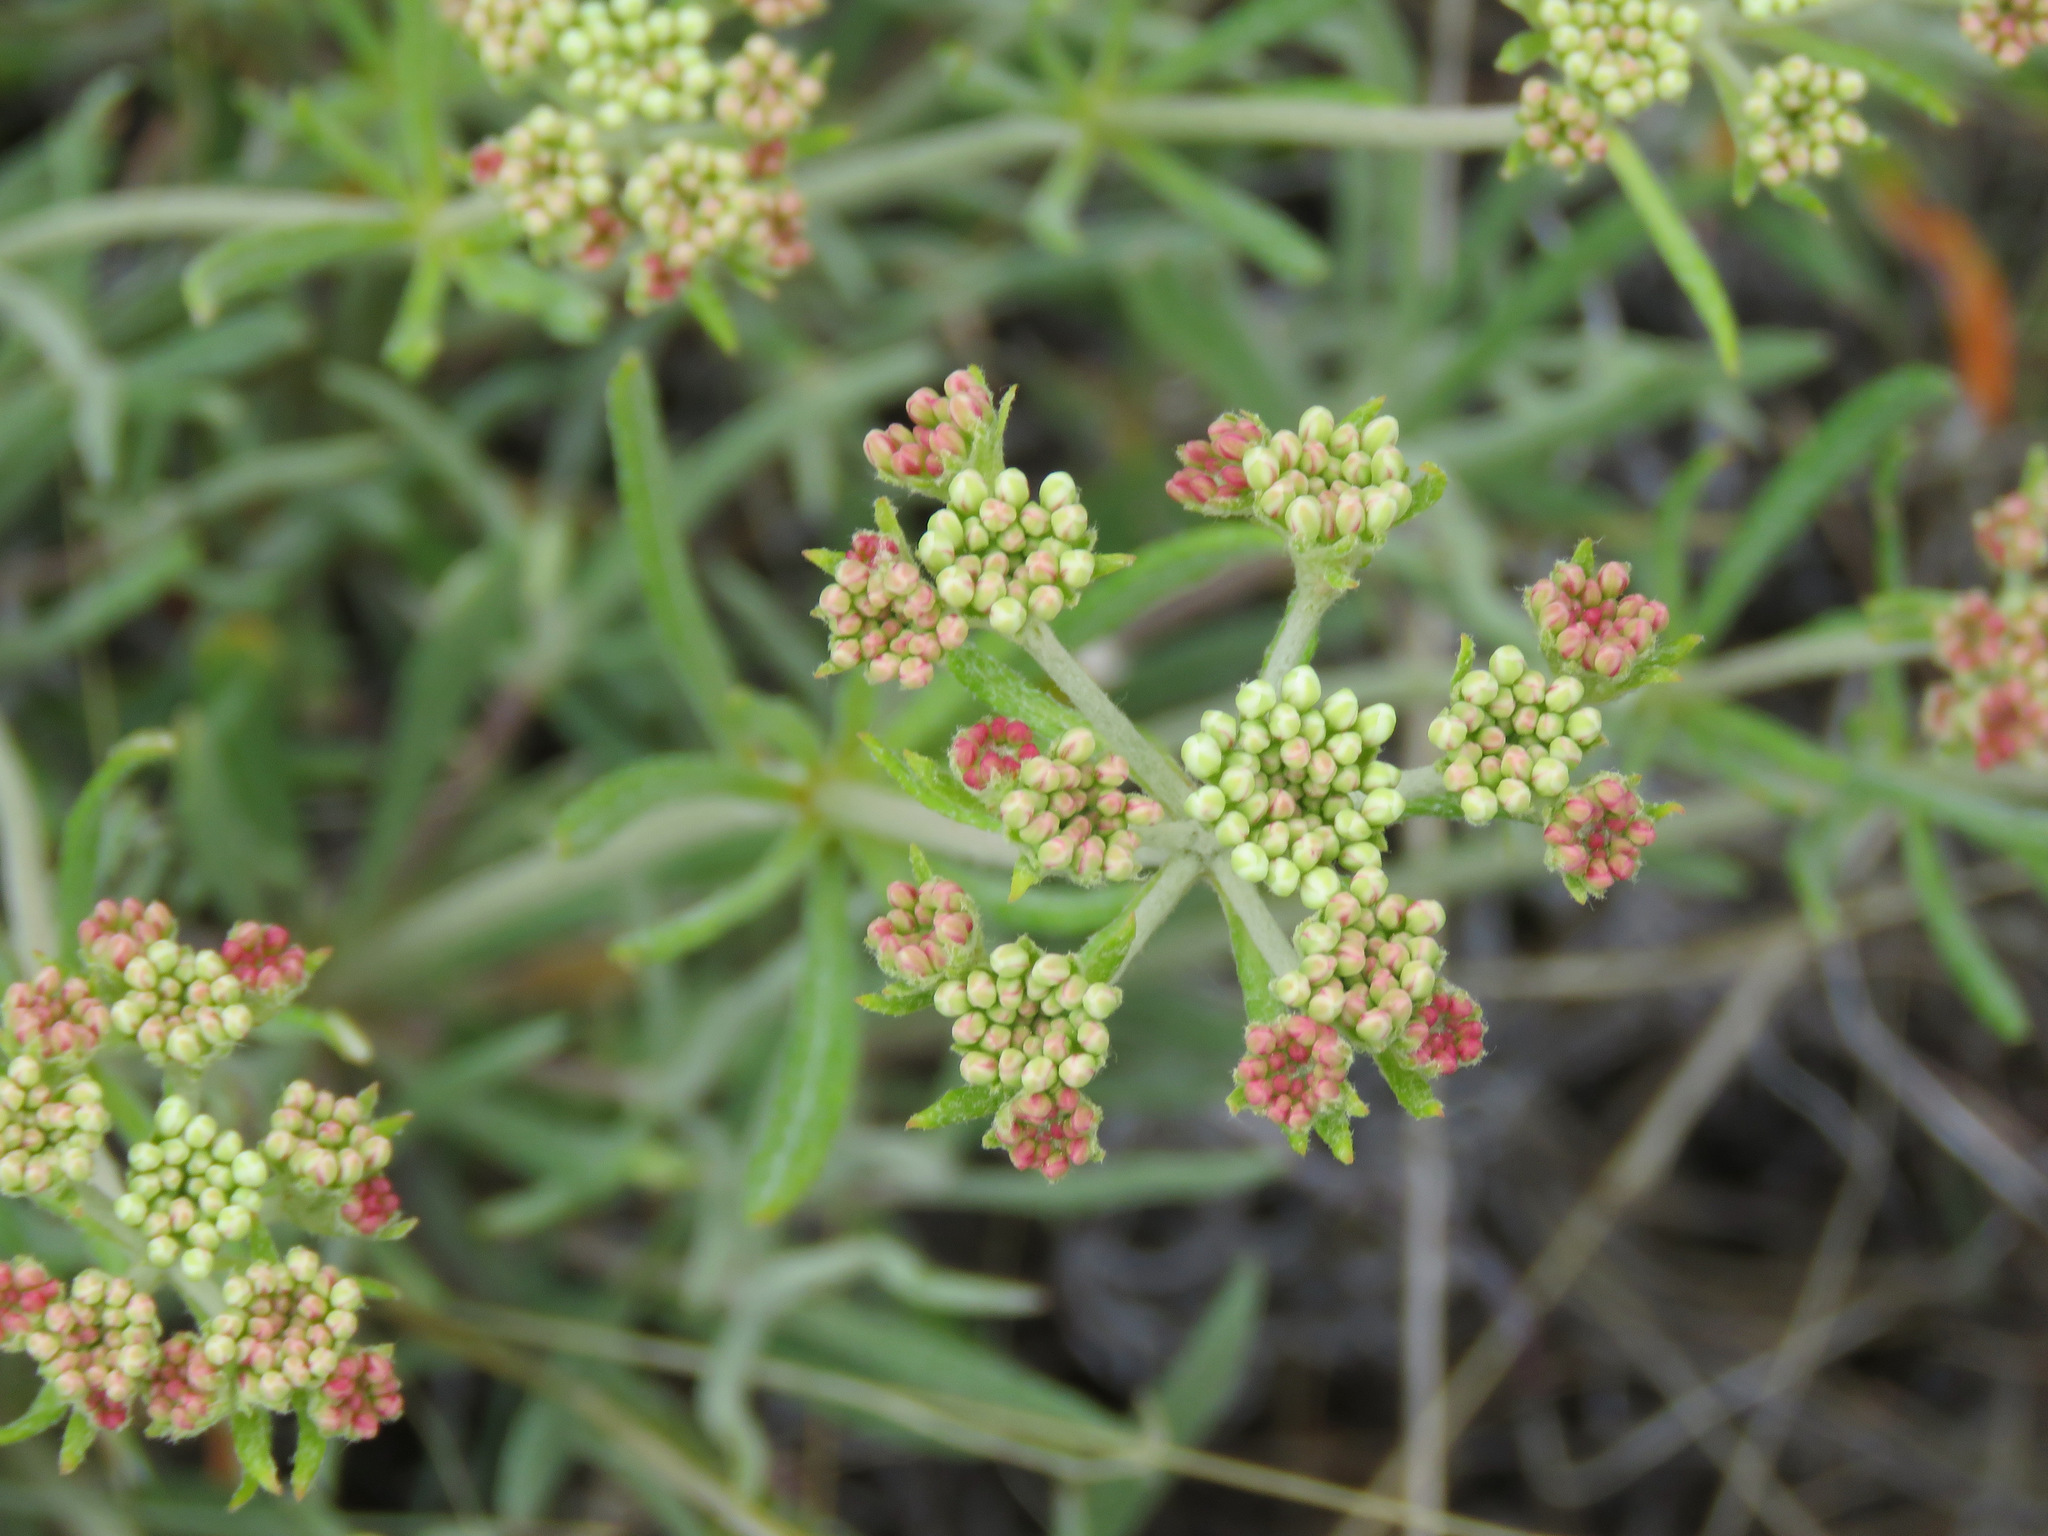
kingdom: Plantae
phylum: Tracheophyta
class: Magnoliopsida
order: Caryophyllales
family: Polygonaceae
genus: Eriogonum
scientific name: Eriogonum heracleoides
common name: Wyeth's buckwheat
